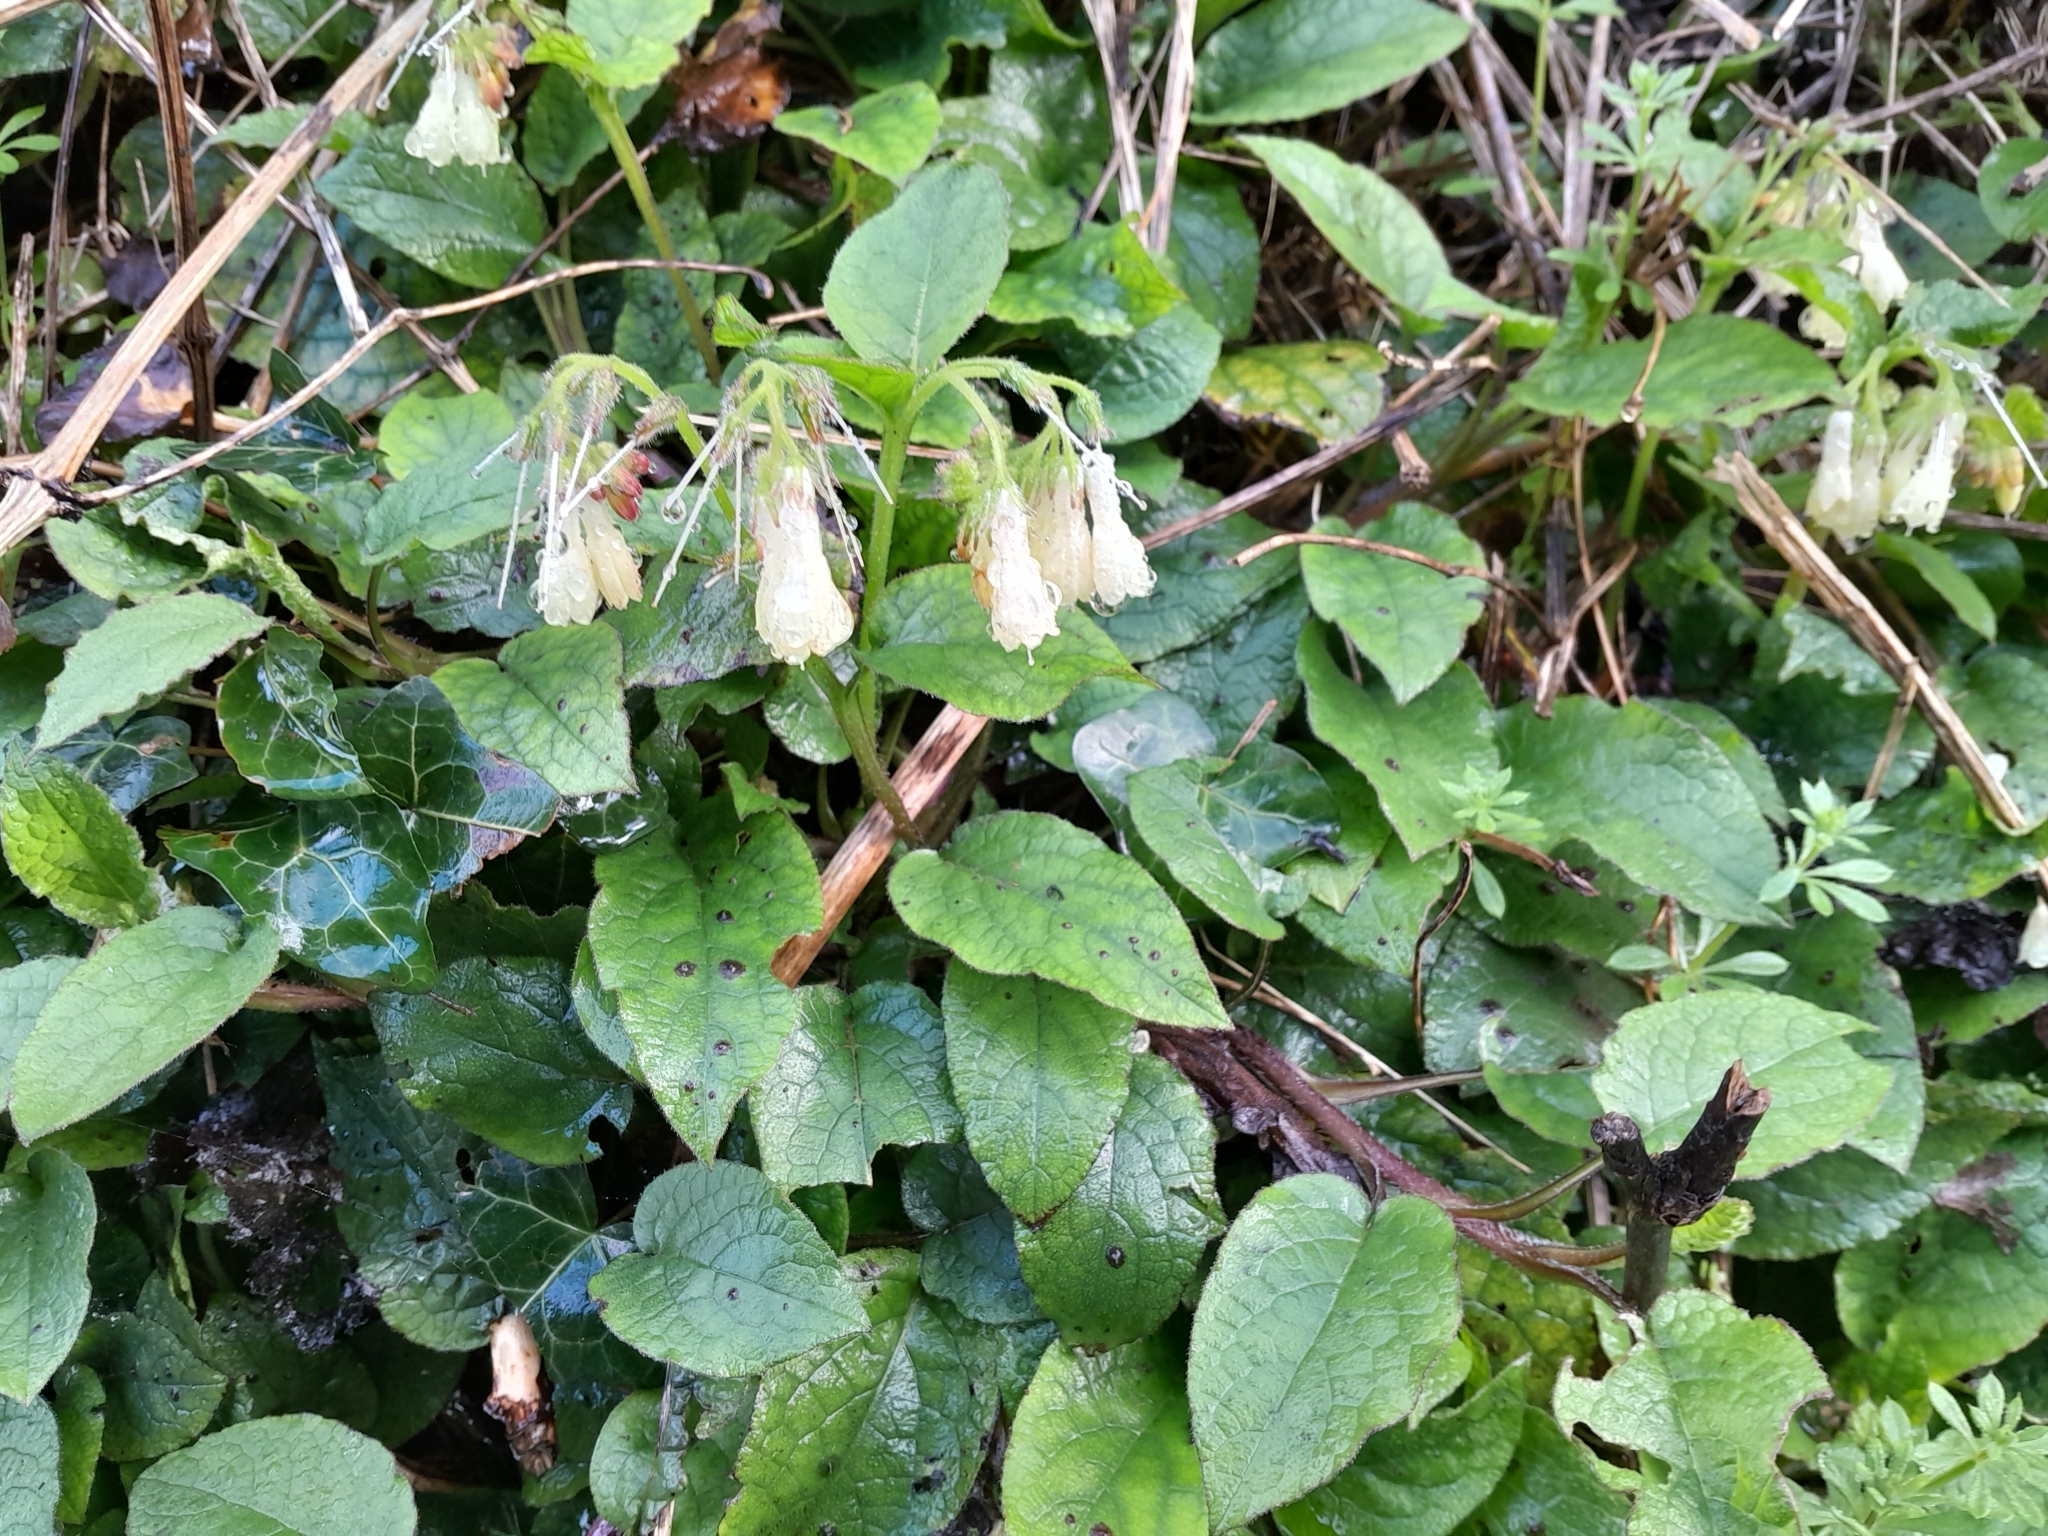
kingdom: Plantae
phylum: Tracheophyta
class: Magnoliopsida
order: Boraginales
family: Boraginaceae
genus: Symphytum
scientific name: Symphytum grandiflorum
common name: Creeping comfrey
